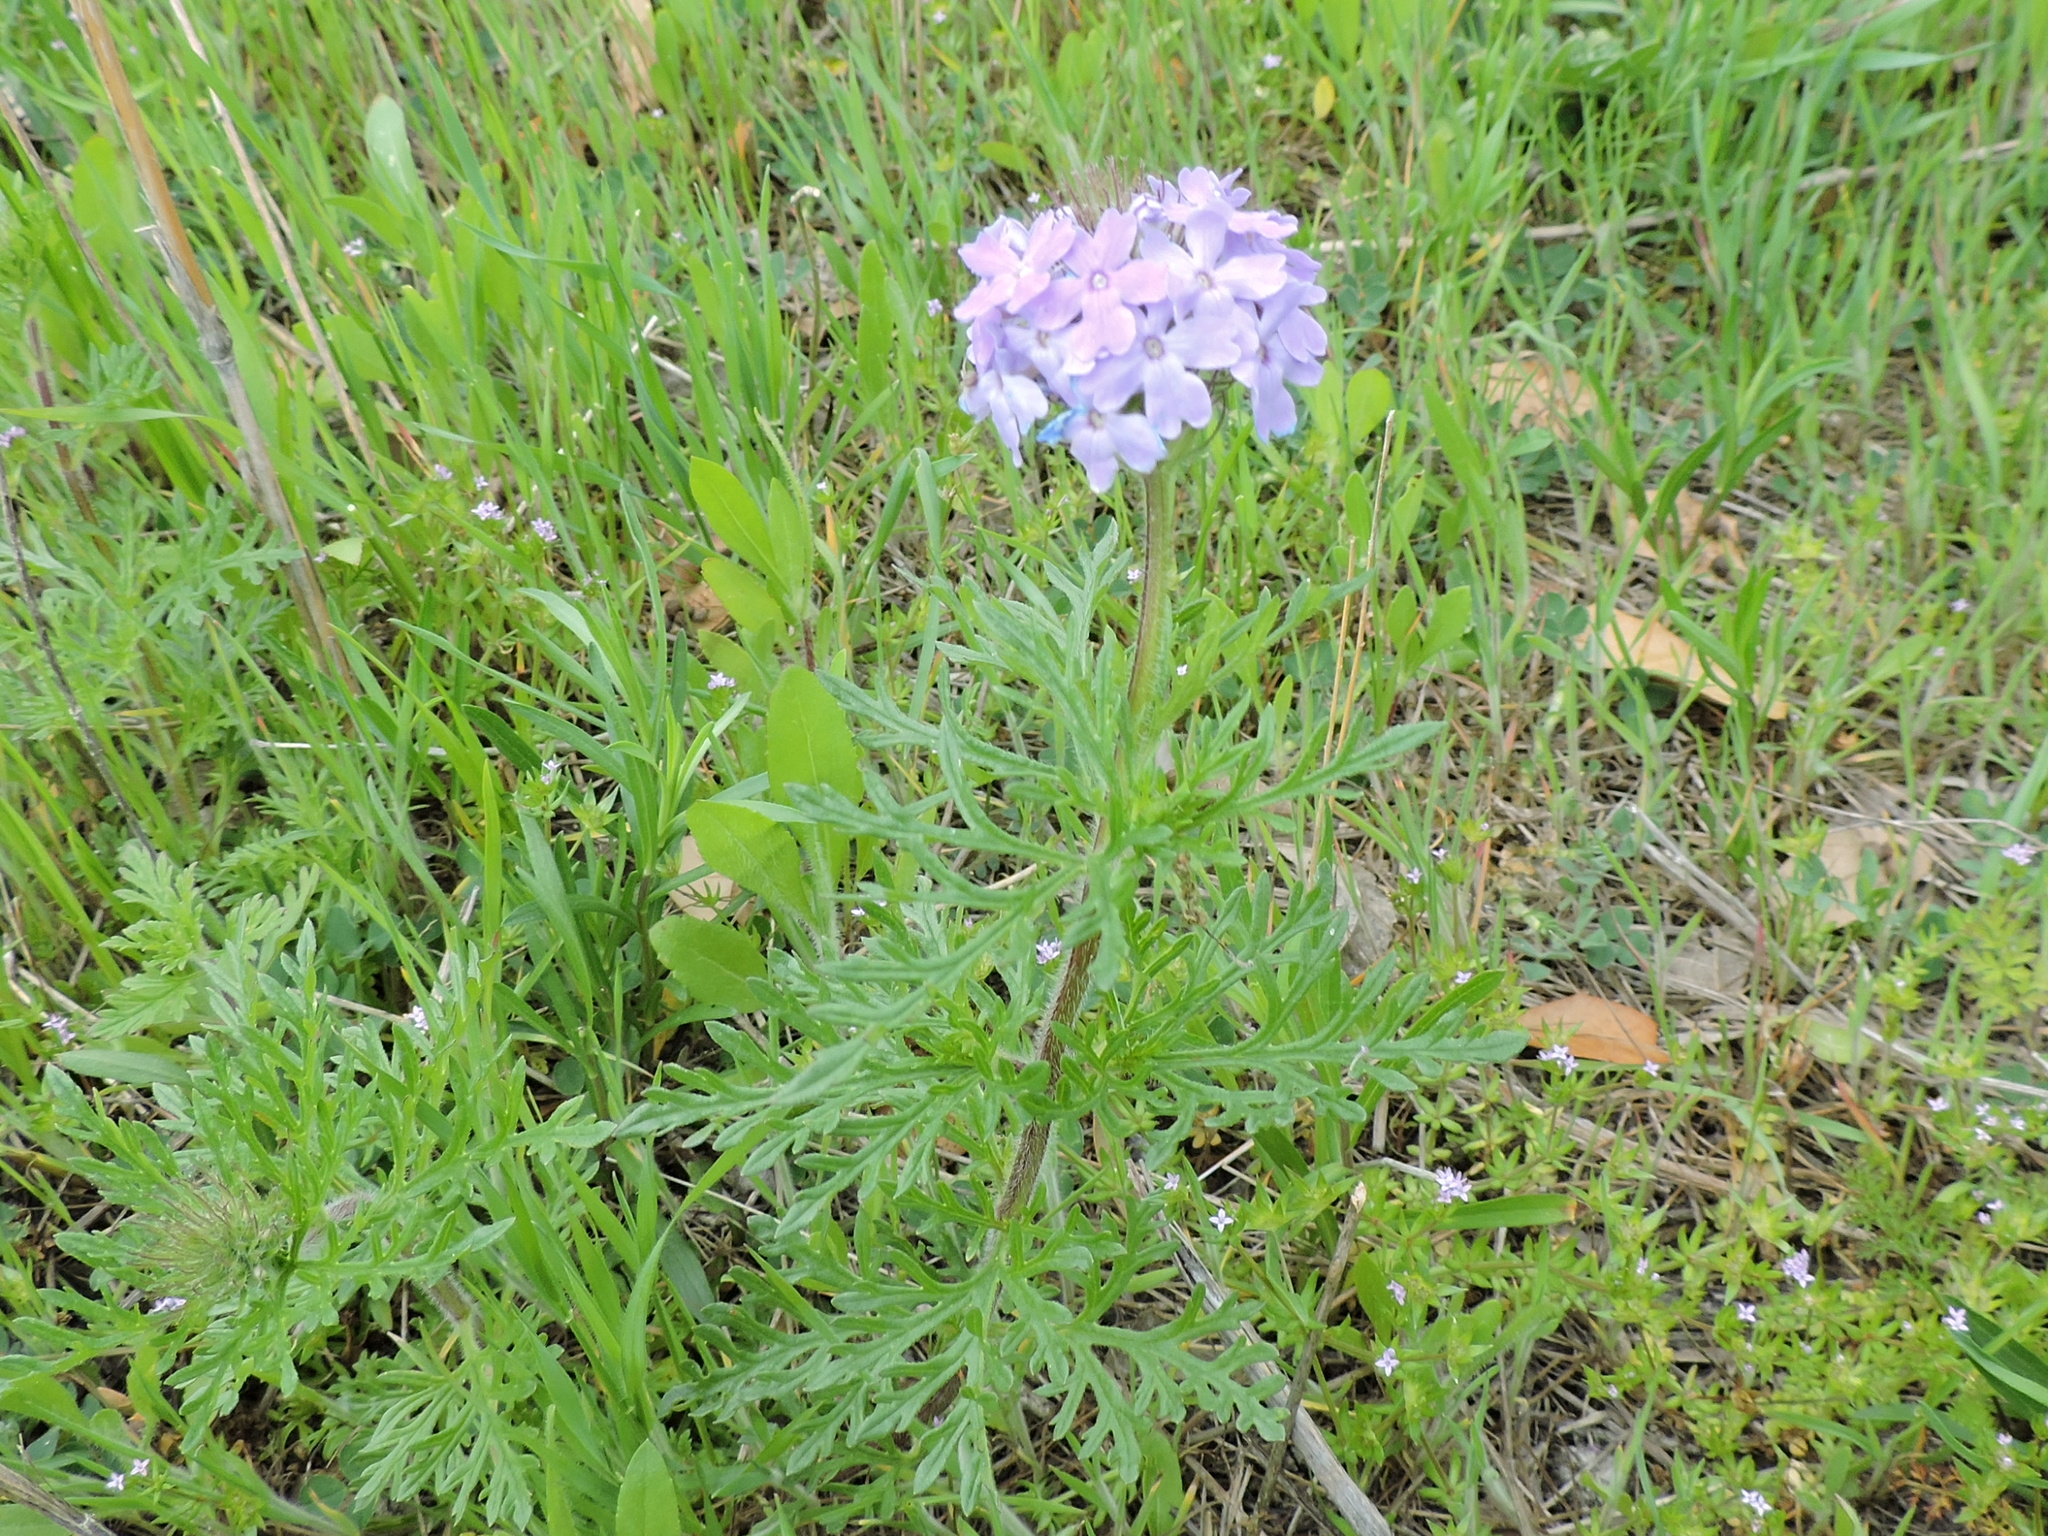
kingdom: Plantae
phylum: Tracheophyta
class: Magnoliopsida
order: Lamiales
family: Verbenaceae
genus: Verbena
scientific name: Verbena bipinnatifida
